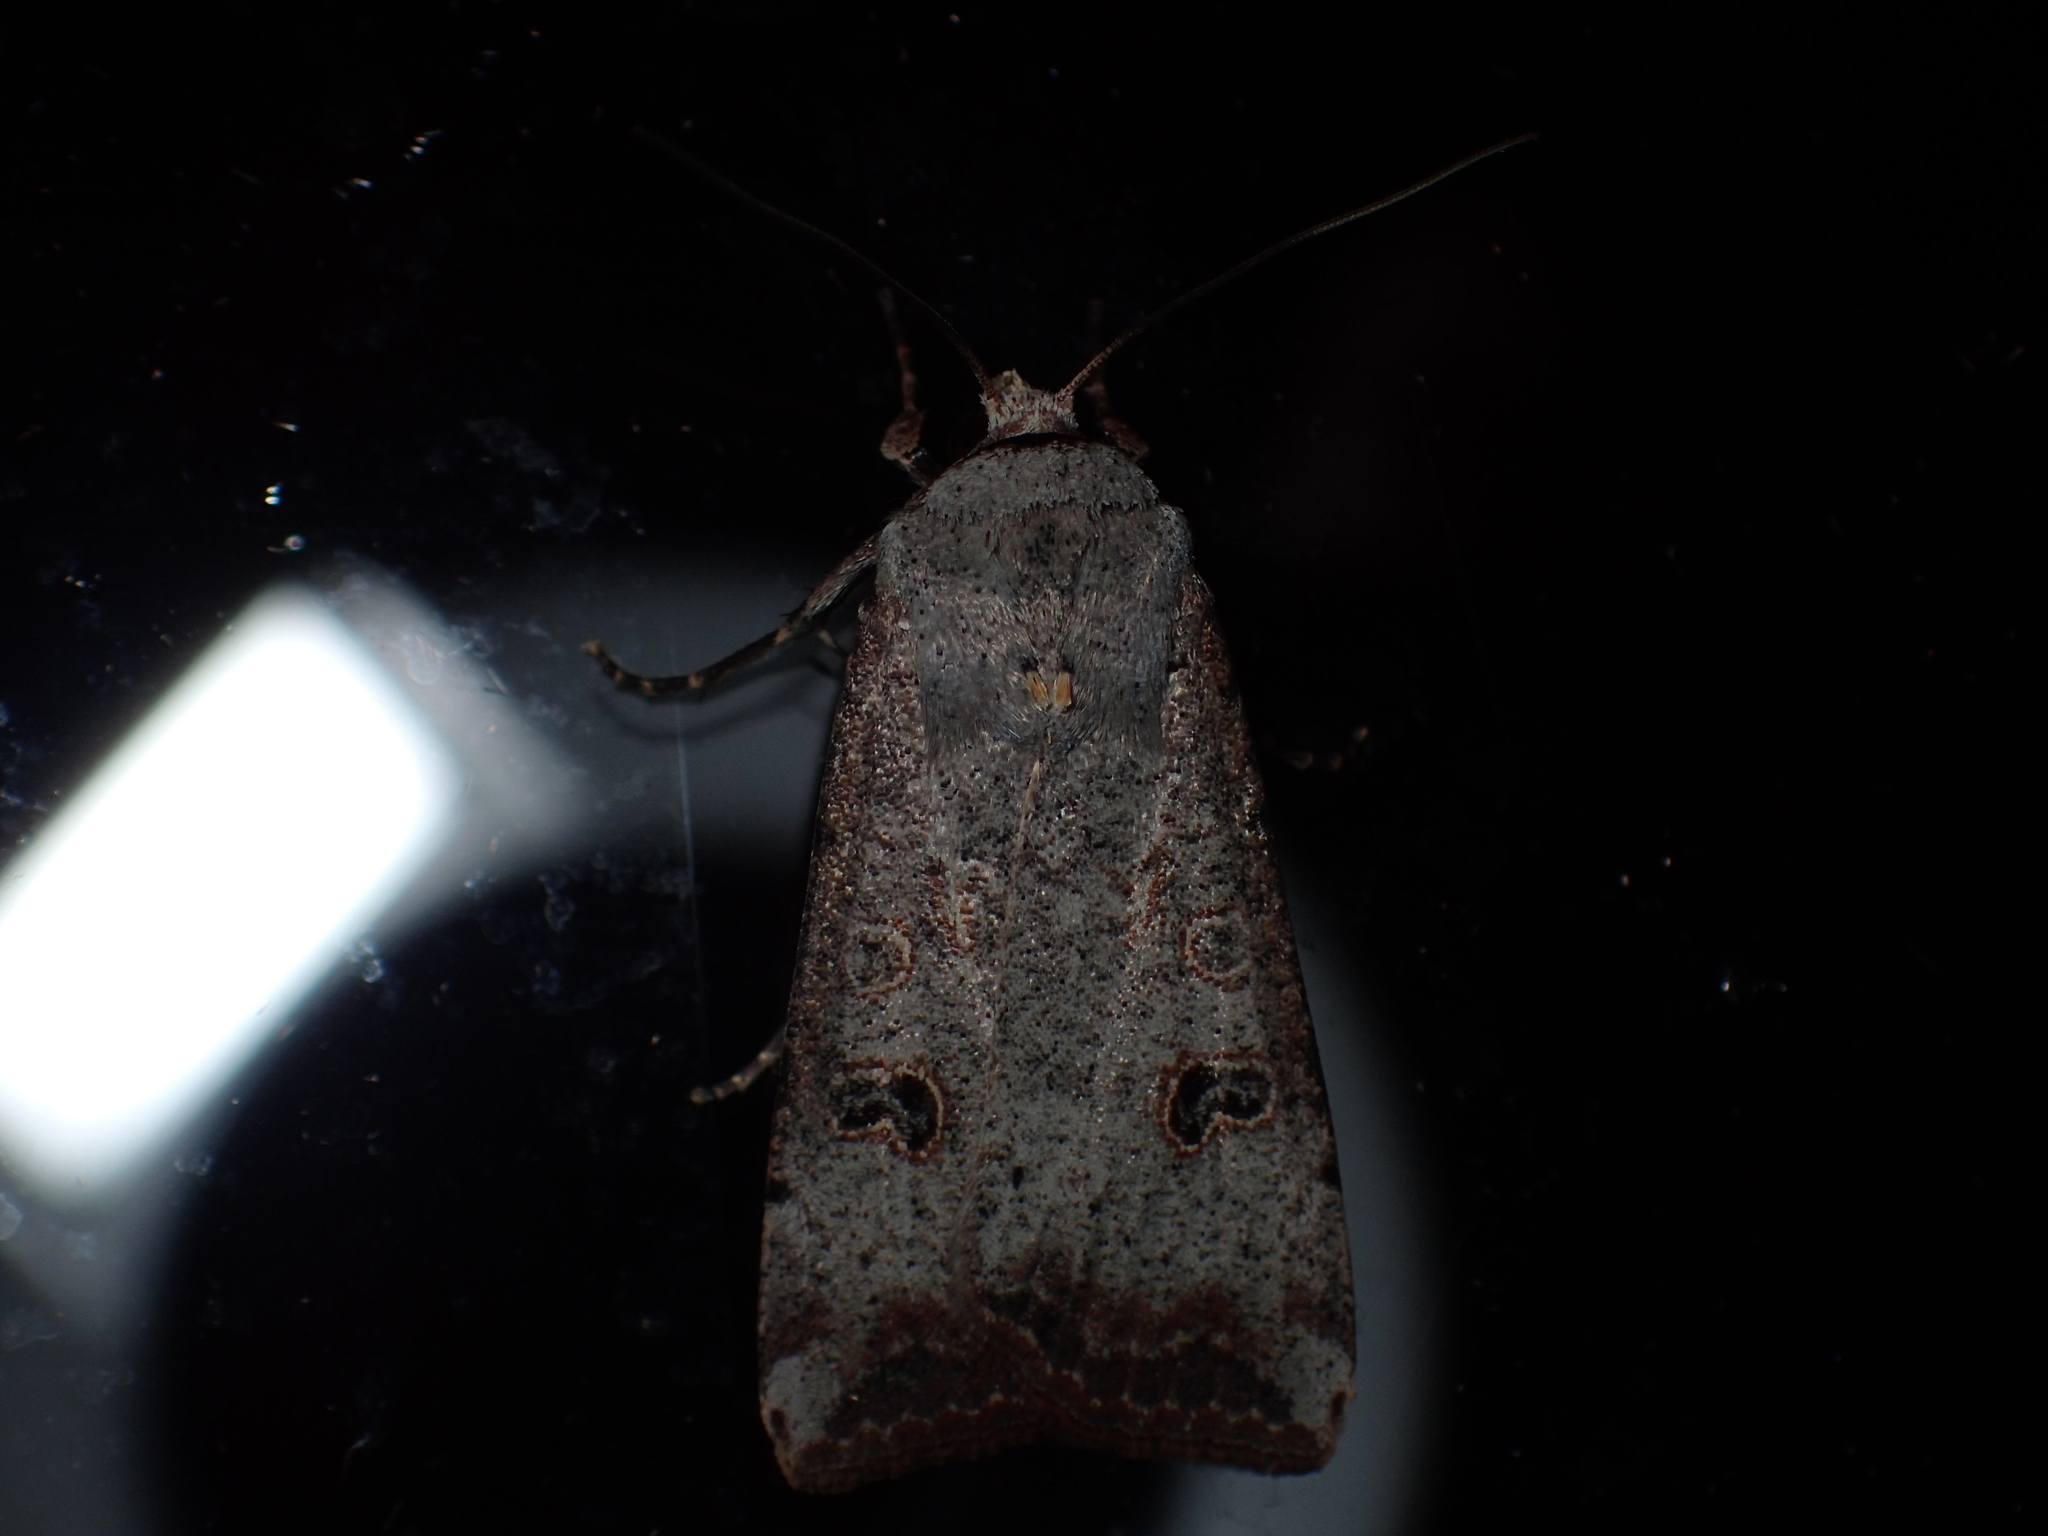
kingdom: Animalia
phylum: Arthropoda
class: Insecta
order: Lepidoptera
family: Noctuidae
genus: Anicla
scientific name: Anicla infecta
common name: Green cutworm
